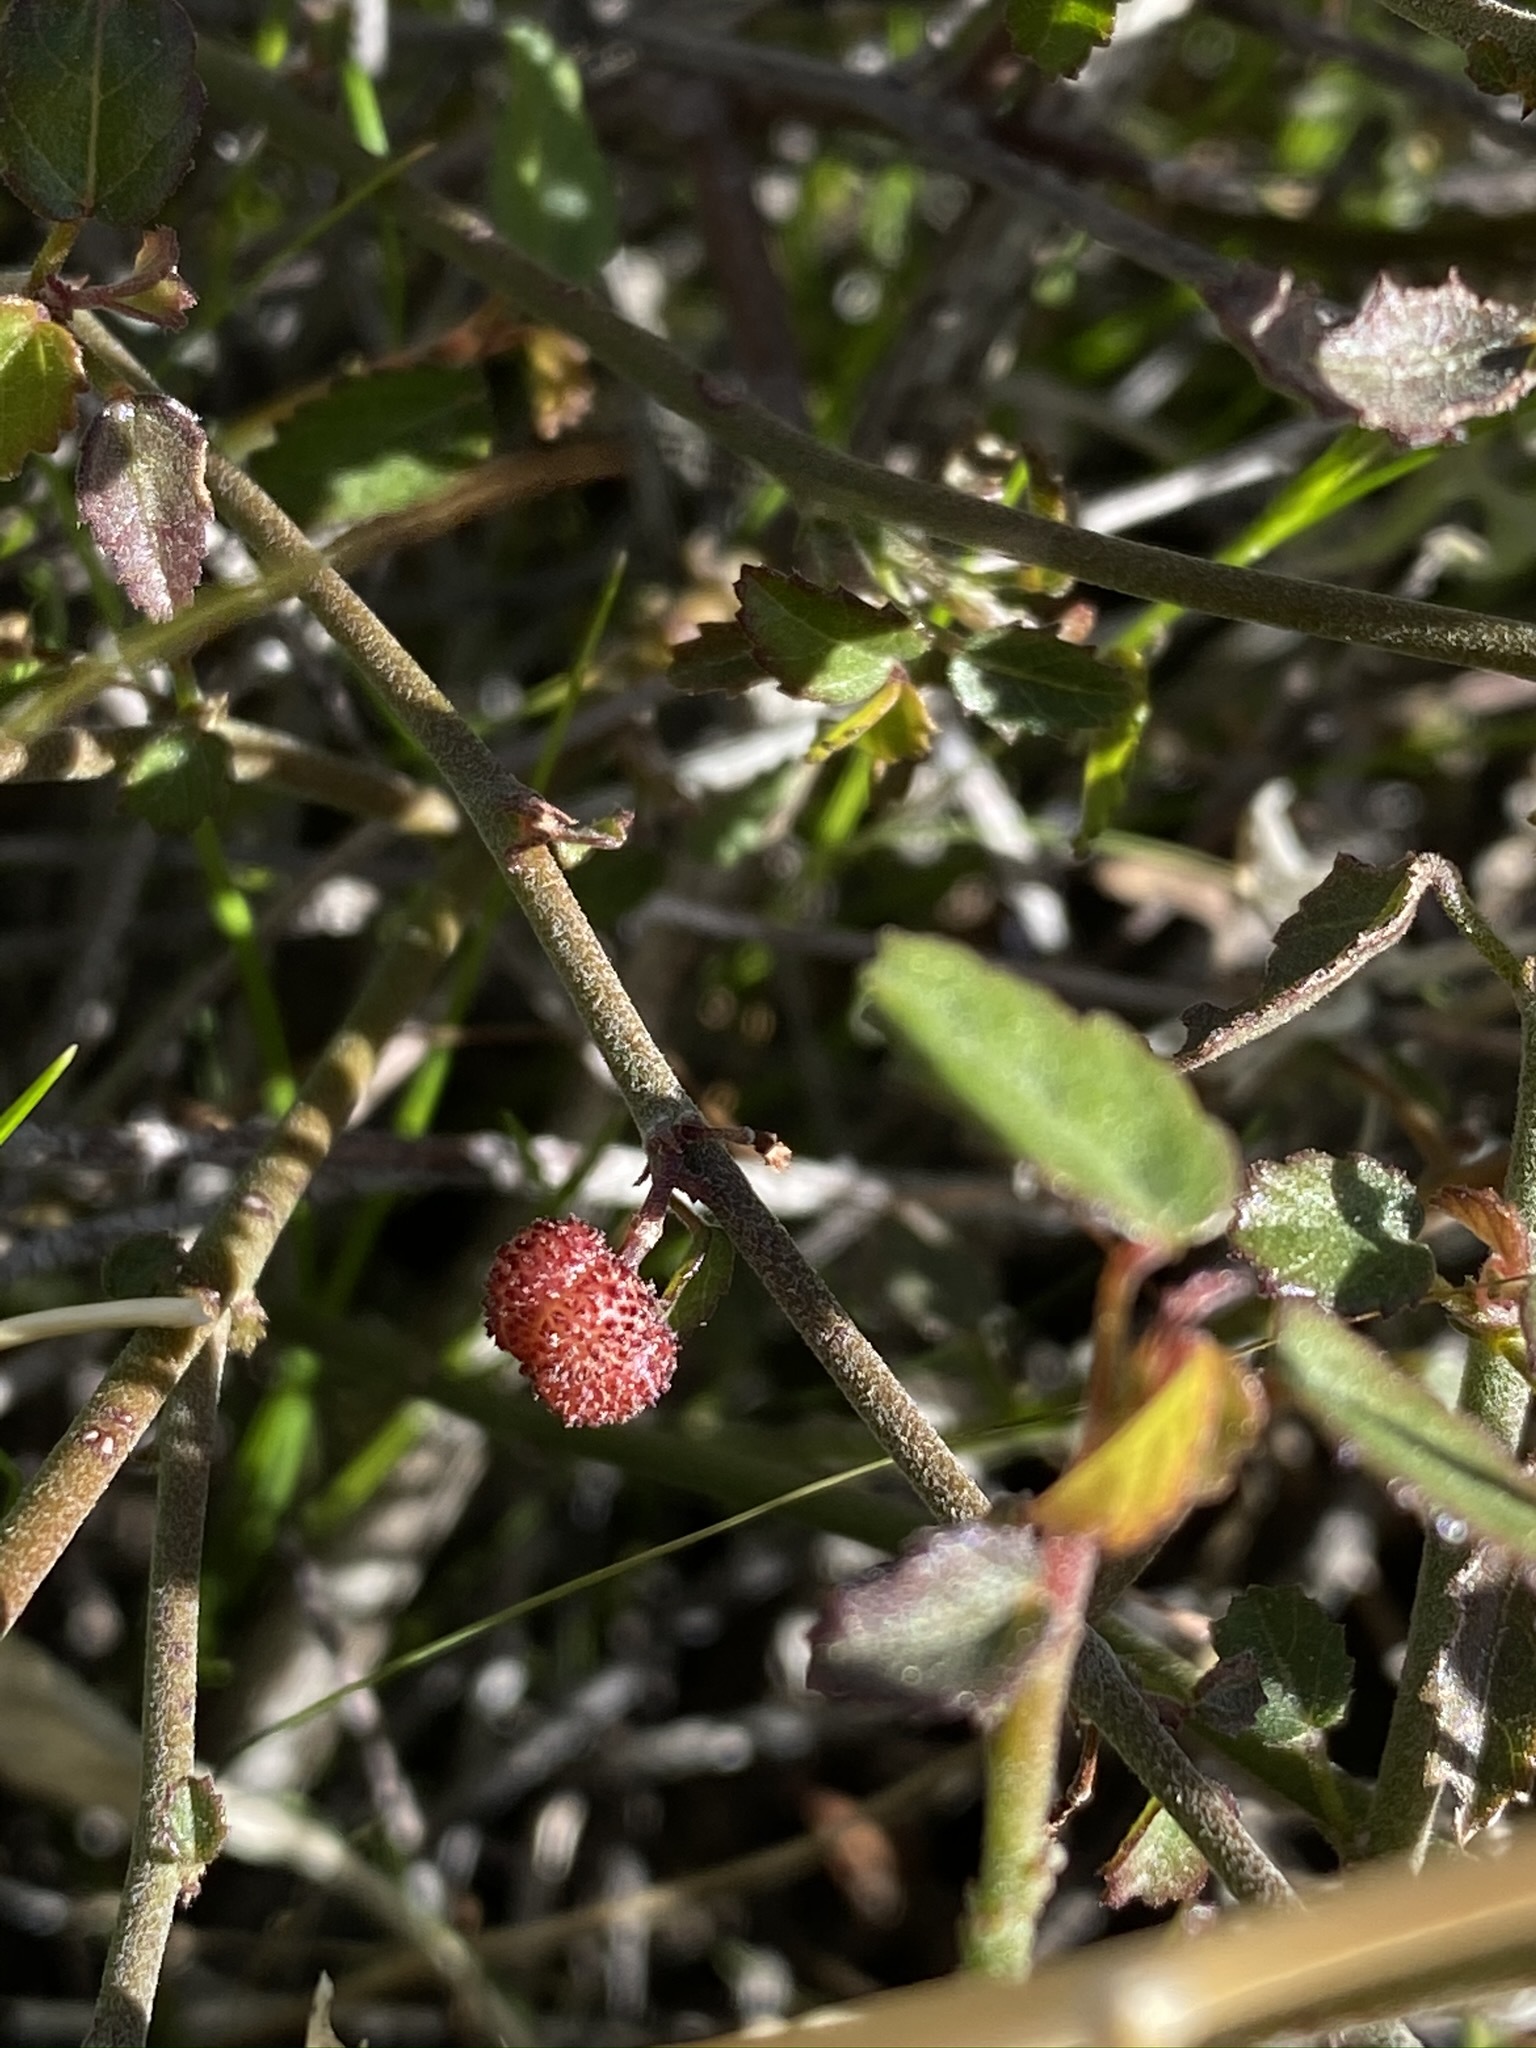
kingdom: Plantae
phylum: Tracheophyta
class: Magnoliopsida
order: Malvales
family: Malvaceae
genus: Ayenia
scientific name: Ayenia compacta
